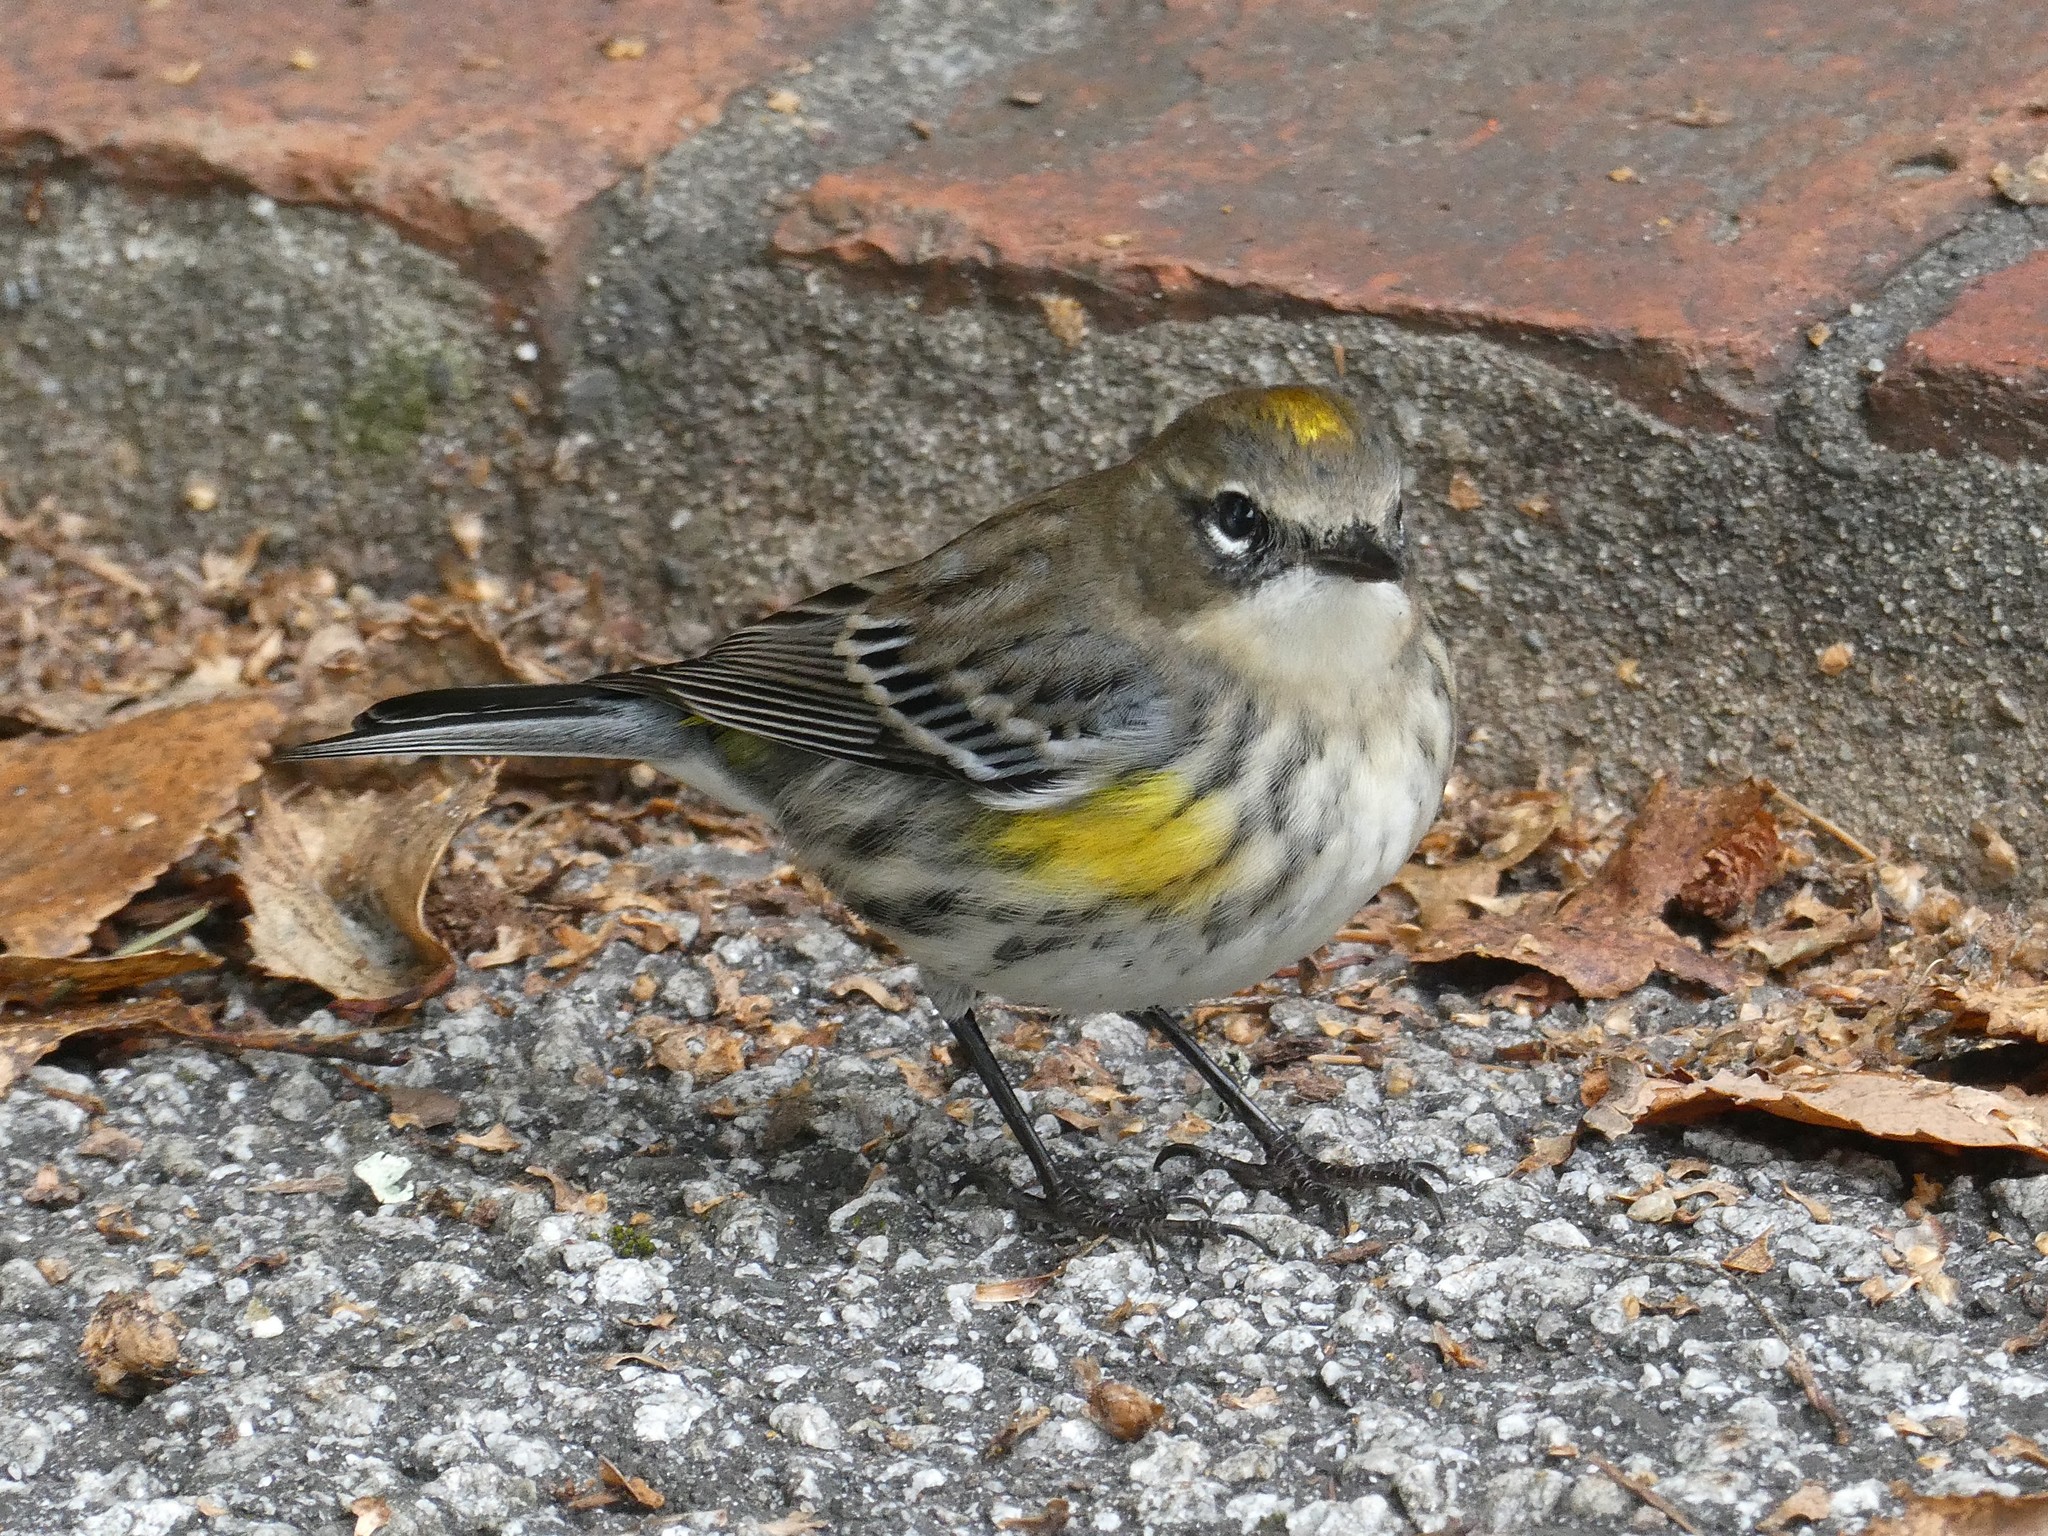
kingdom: Animalia
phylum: Chordata
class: Aves
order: Passeriformes
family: Parulidae
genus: Setophaga
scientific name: Setophaga coronata
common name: Myrtle warbler
